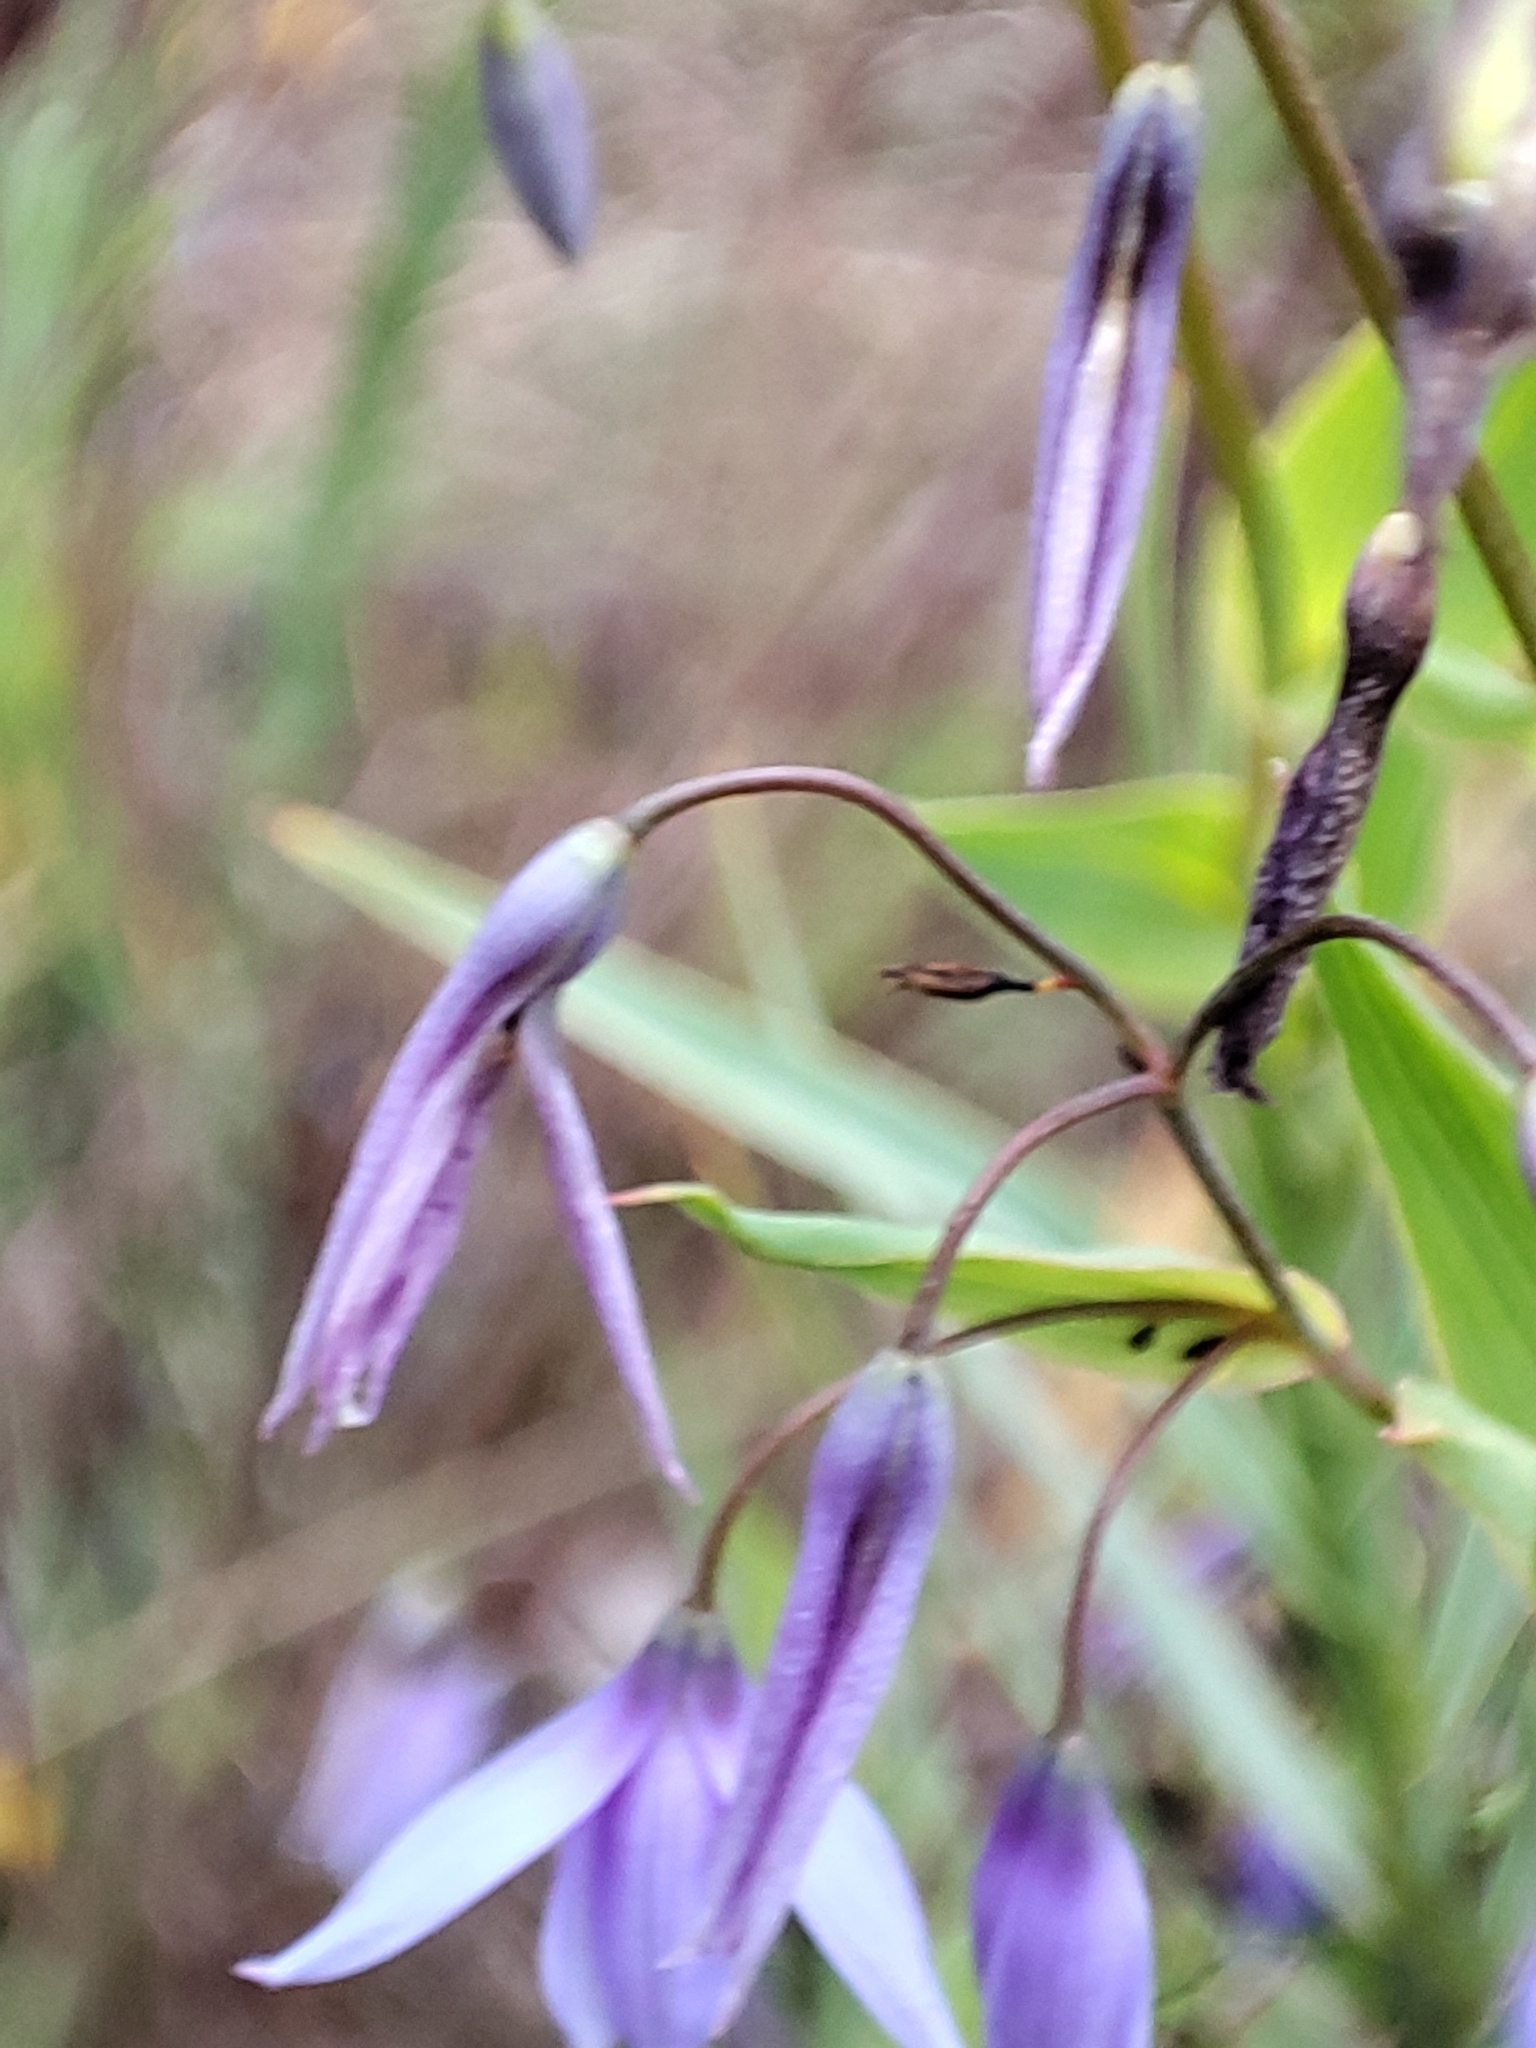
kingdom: Plantae
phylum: Tracheophyta
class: Liliopsida
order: Asparagales
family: Asphodelaceae
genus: Stypandra
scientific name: Stypandra glauca
